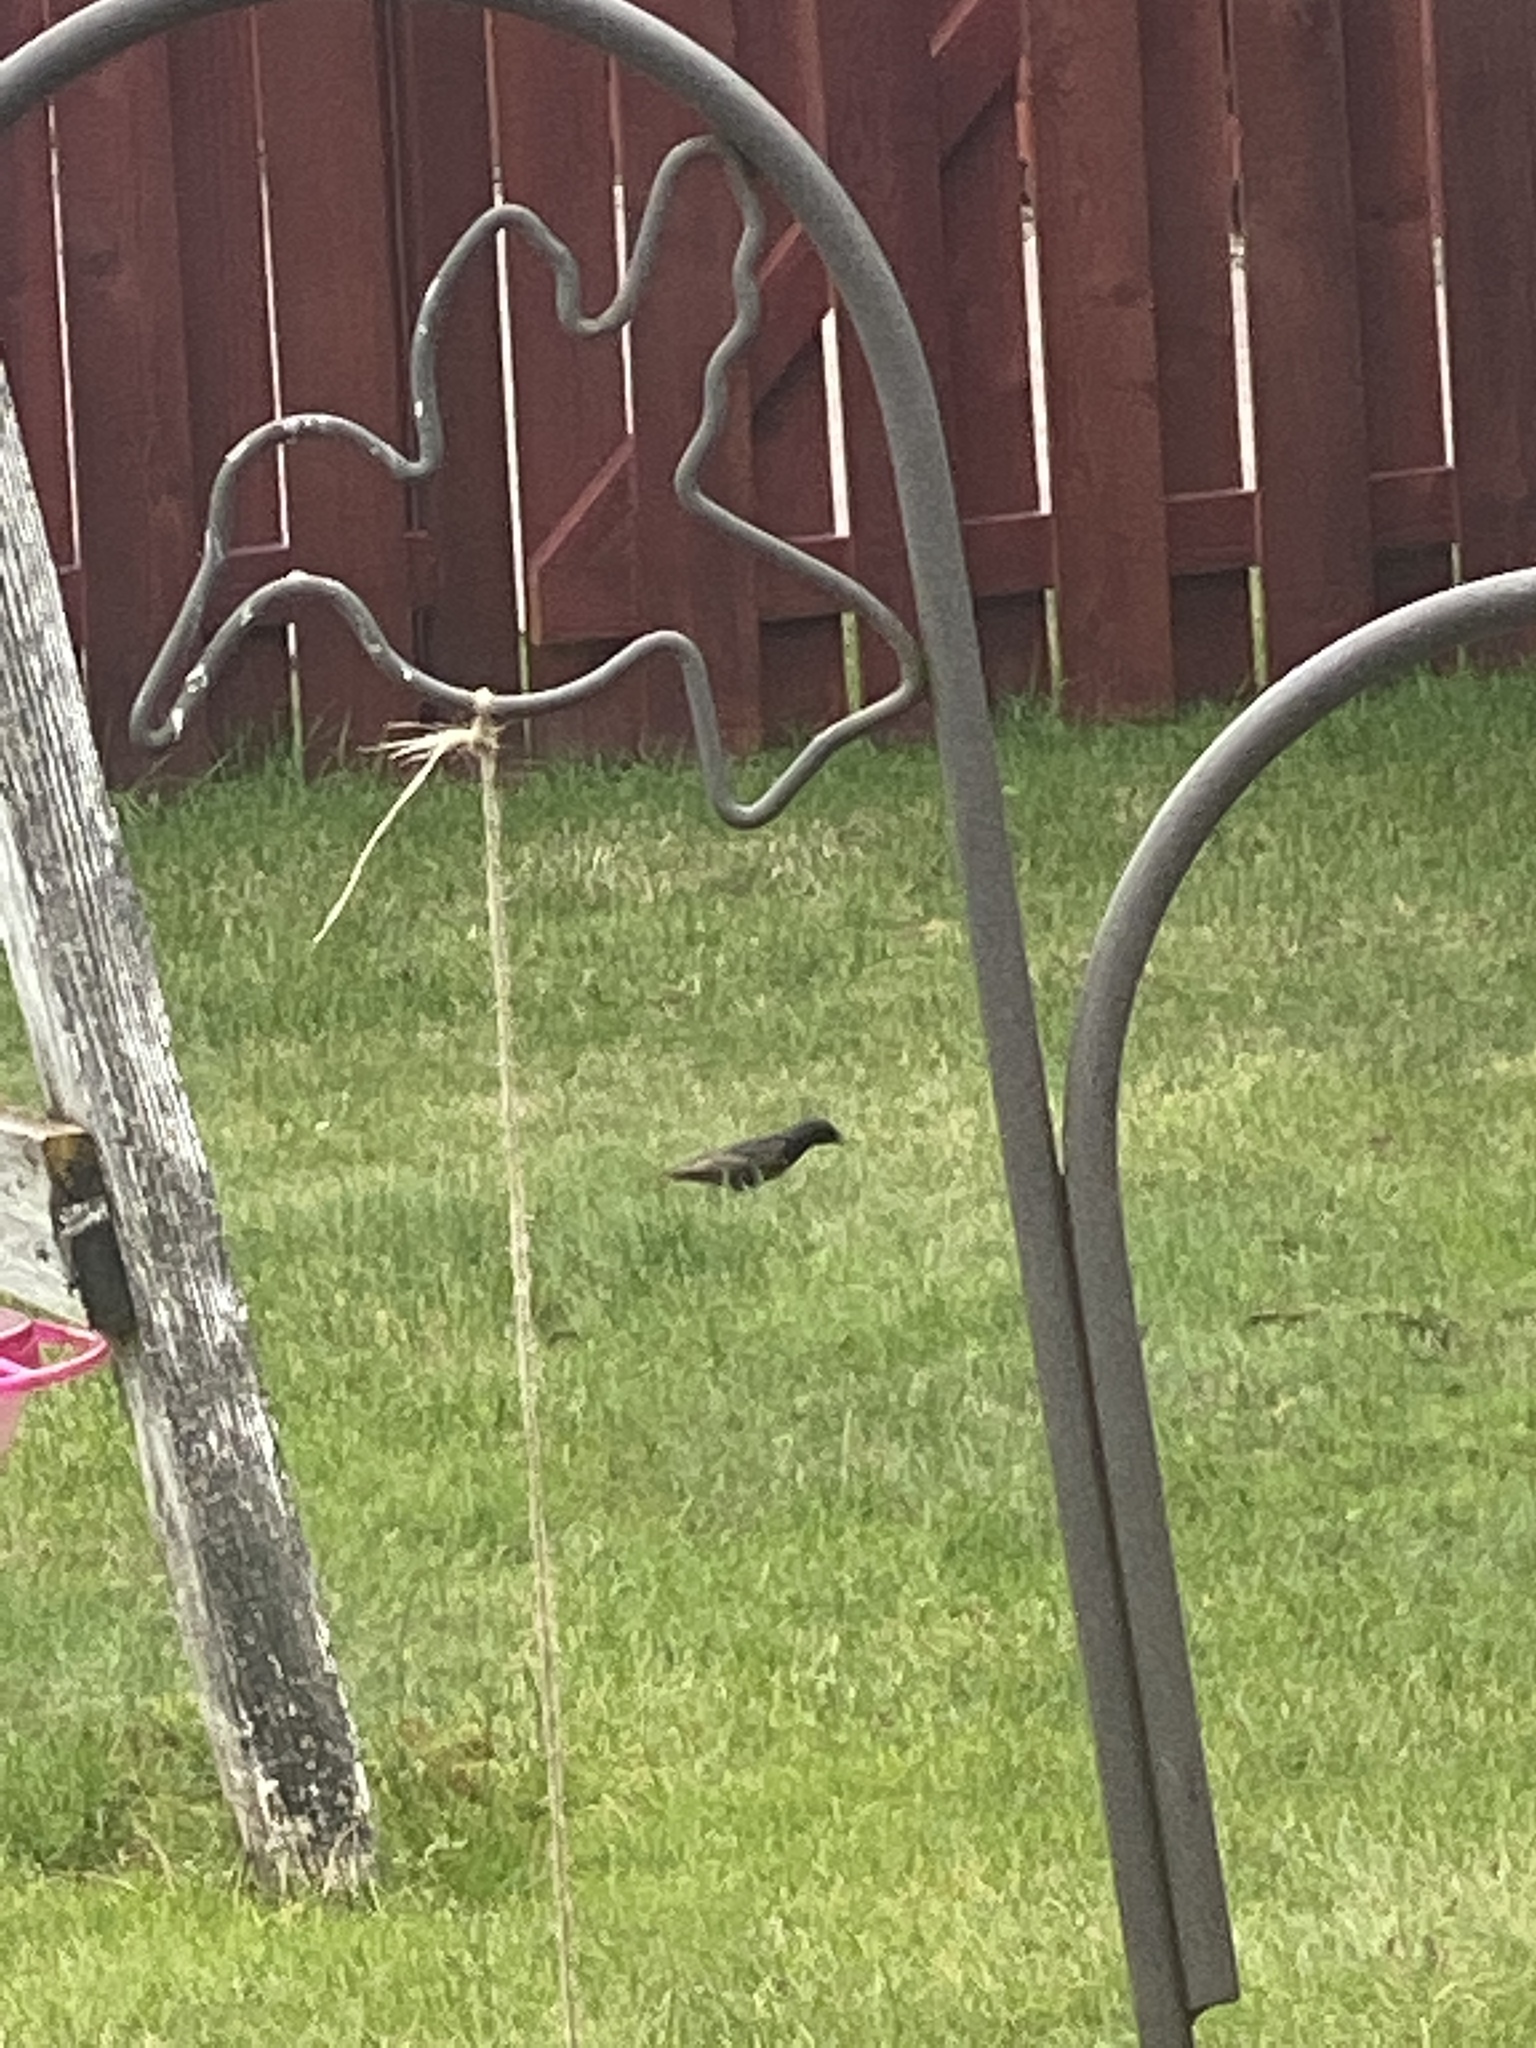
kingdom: Animalia
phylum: Chordata
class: Aves
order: Passeriformes
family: Sturnidae
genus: Sturnus
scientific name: Sturnus vulgaris
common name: Common starling
